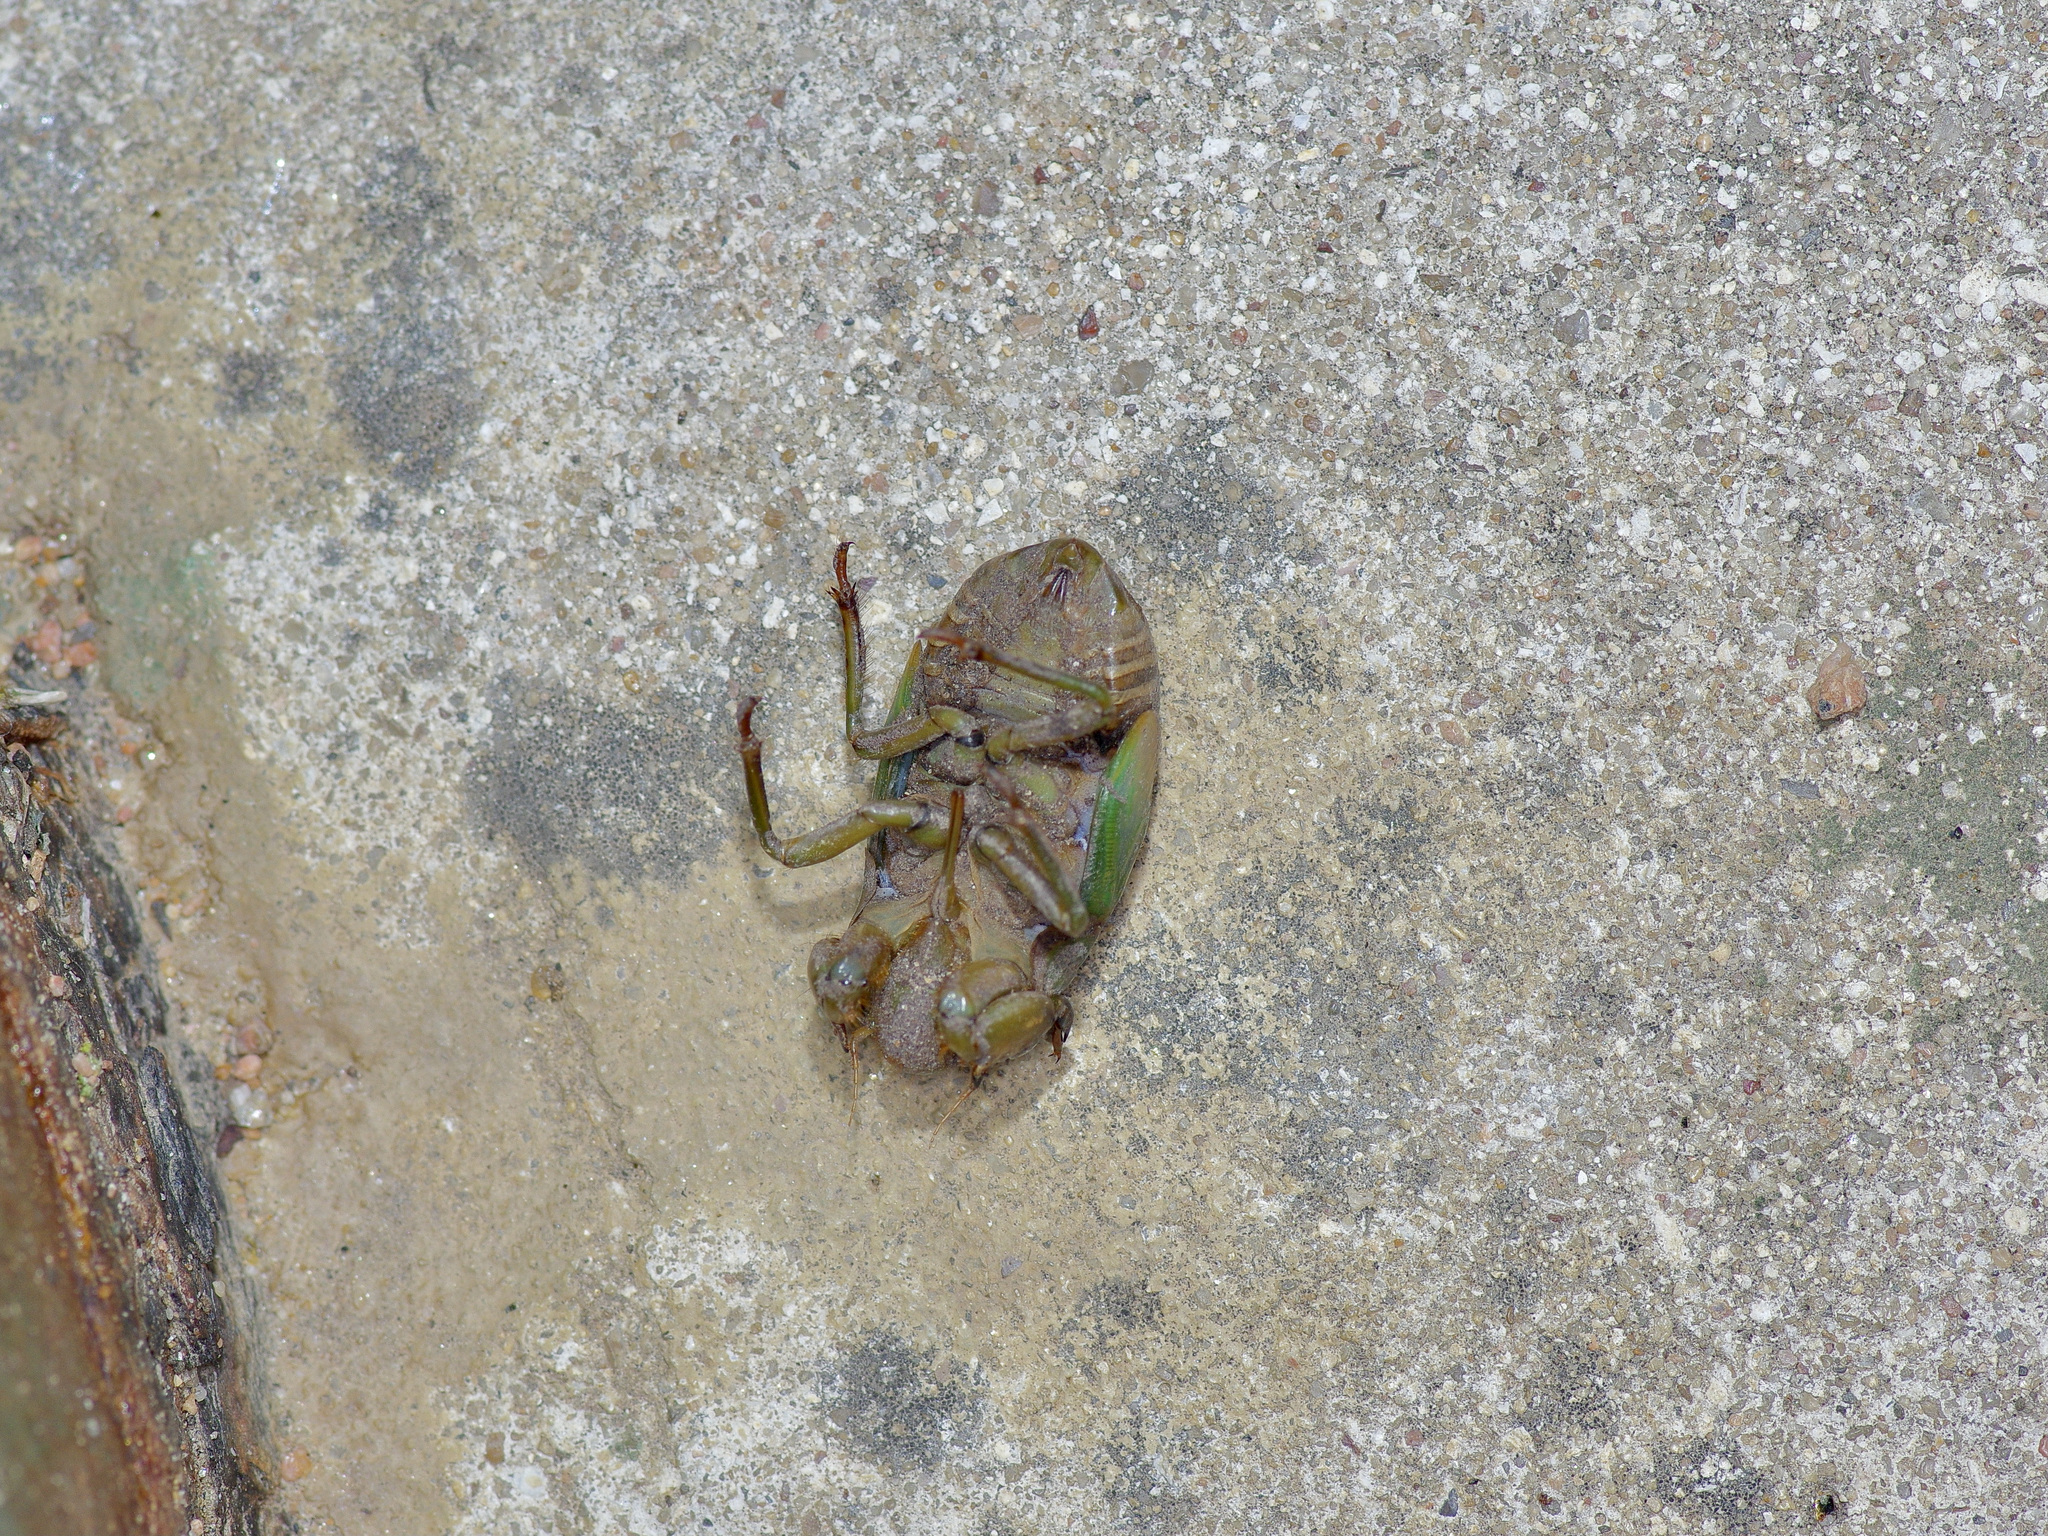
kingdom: Animalia
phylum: Arthropoda
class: Insecta
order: Hemiptera
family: Cicadidae
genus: Neotibicen
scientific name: Neotibicen superbus
